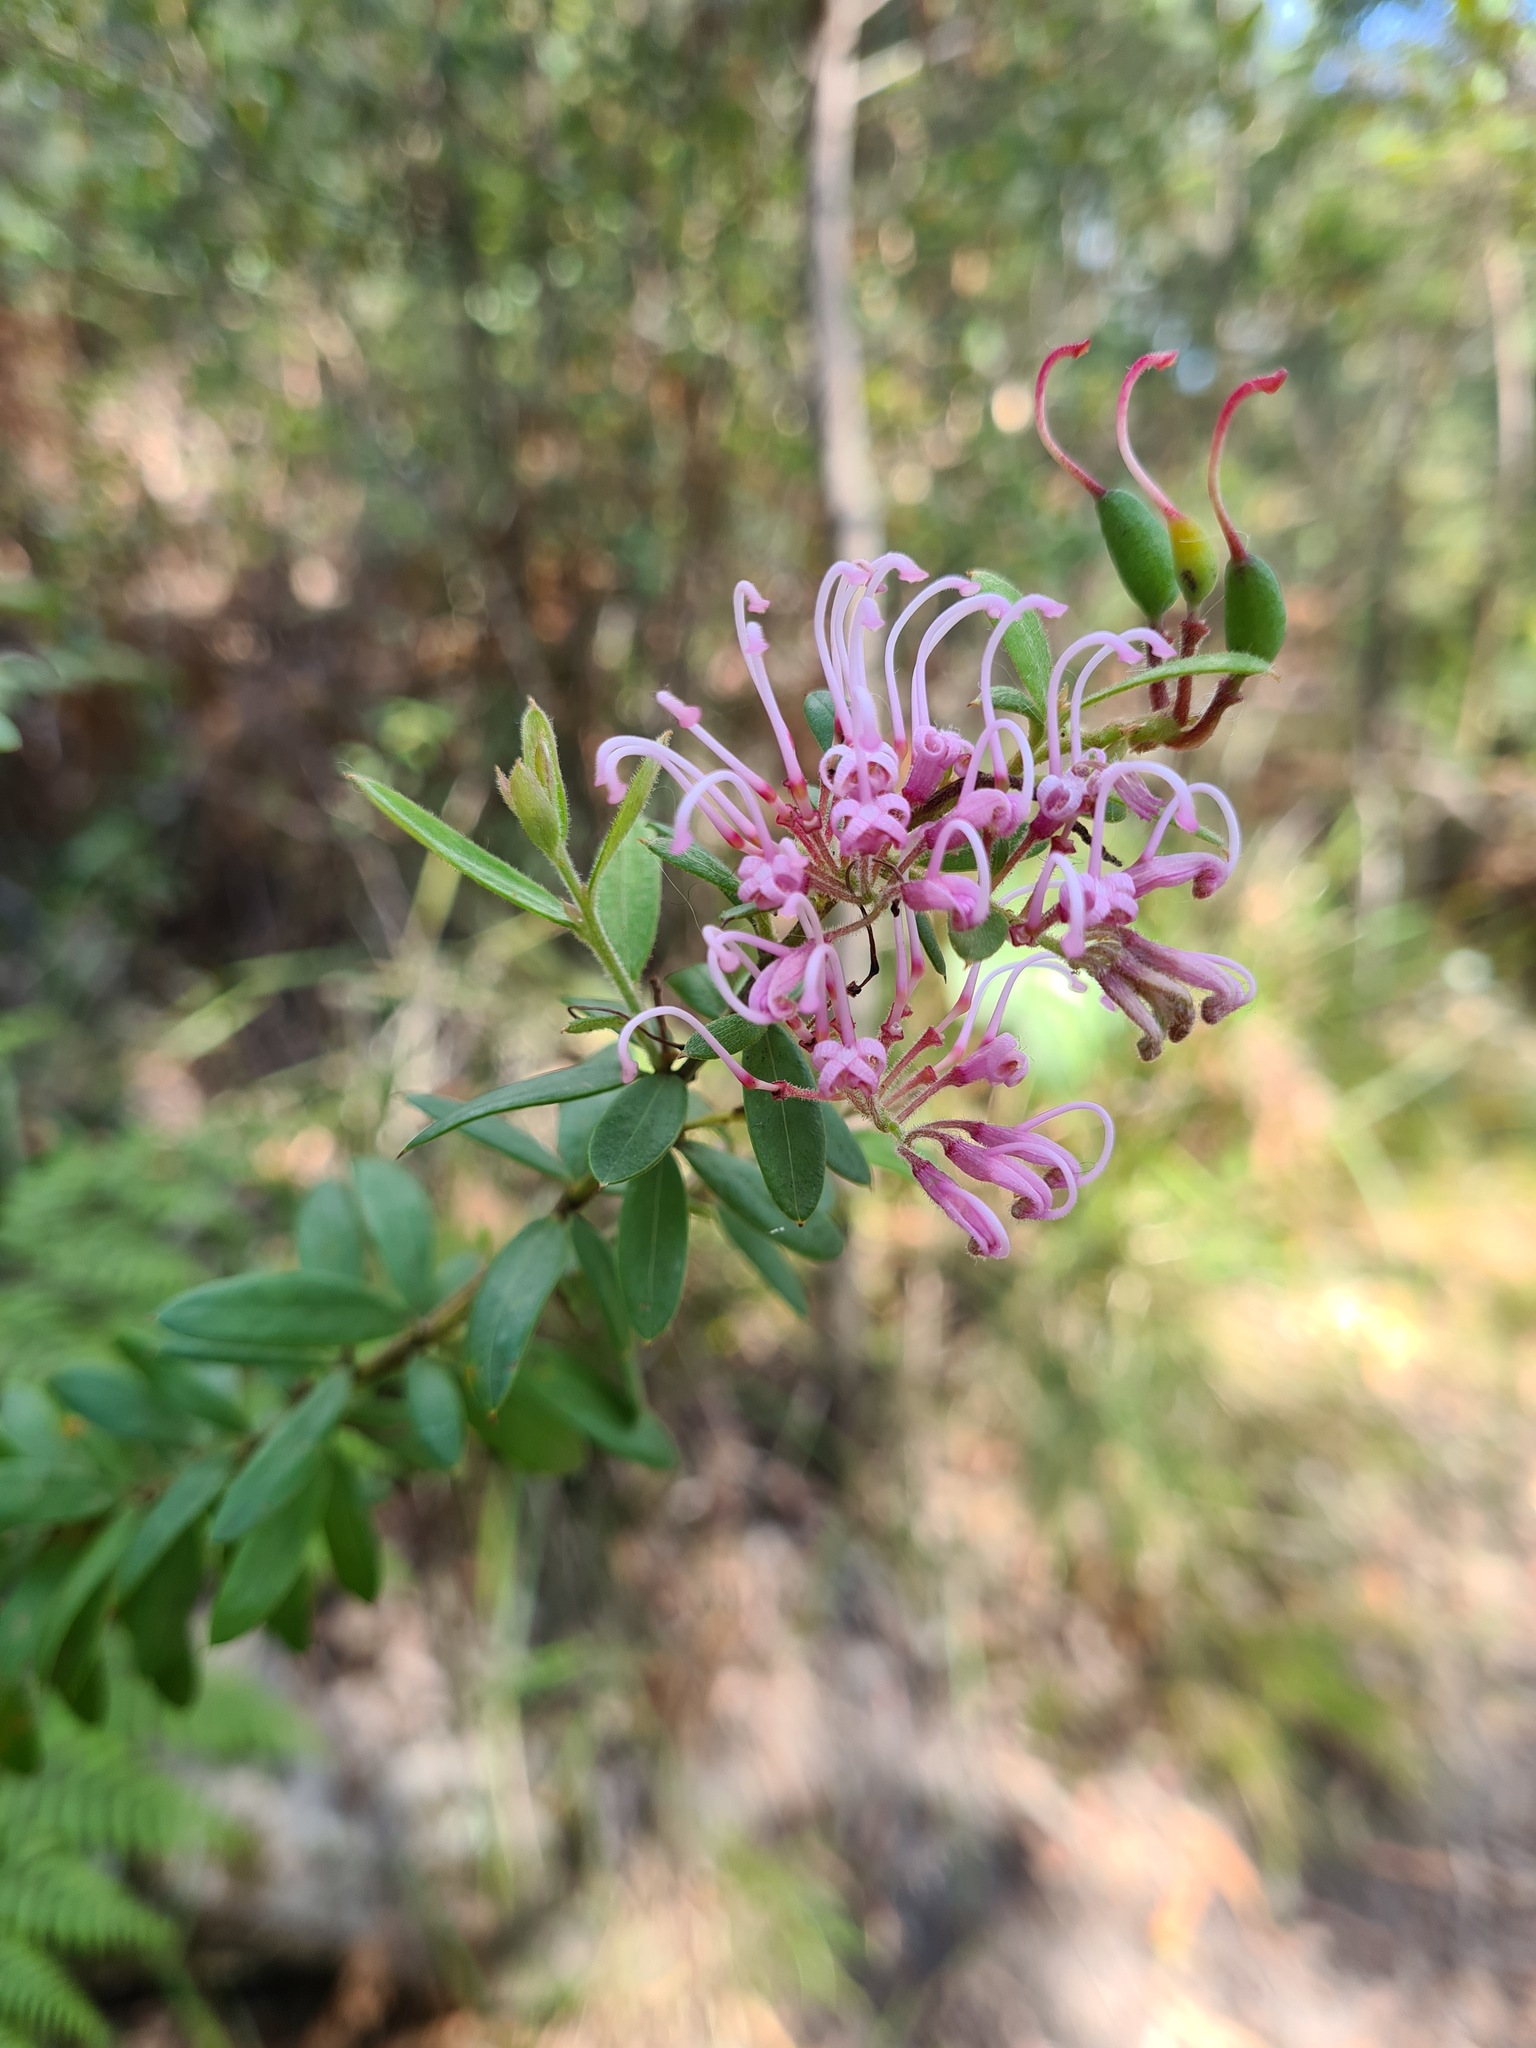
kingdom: Plantae
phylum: Tracheophyta
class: Magnoliopsida
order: Proteales
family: Proteaceae
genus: Grevillea
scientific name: Grevillea sericea
